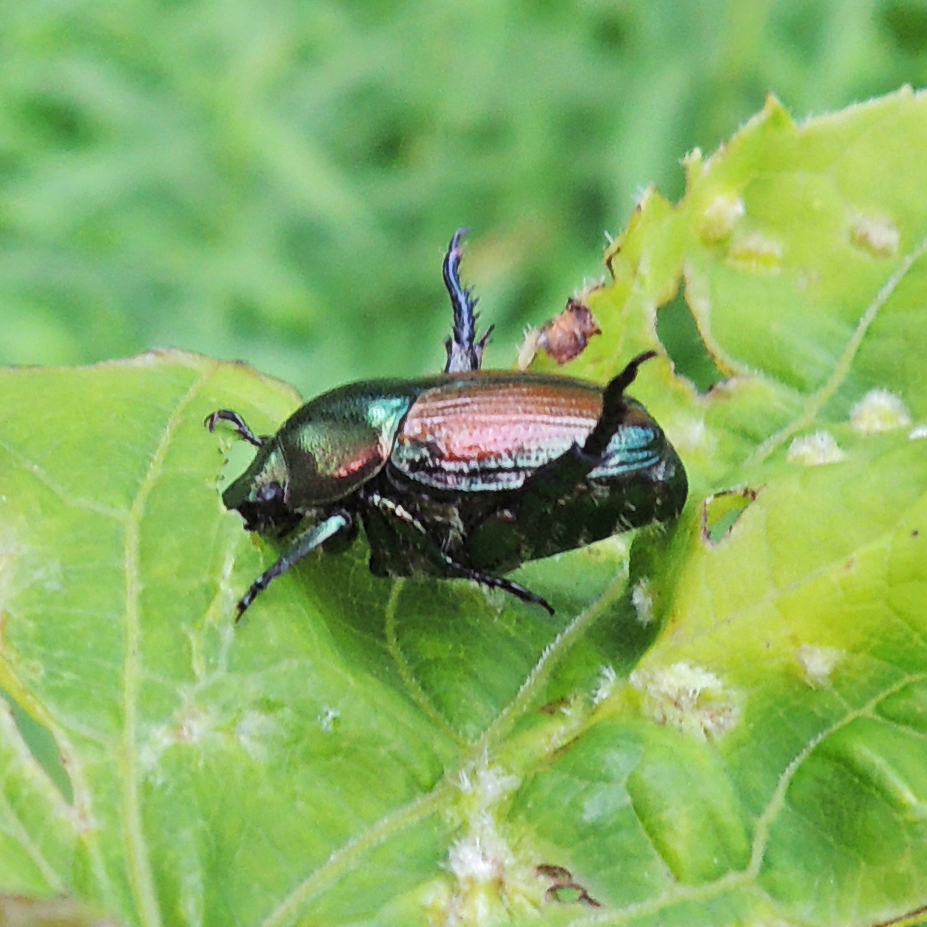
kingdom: Animalia
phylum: Arthropoda
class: Insecta
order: Coleoptera
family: Scarabaeidae
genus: Popillia
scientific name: Popillia japonica
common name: Japanese beetle
